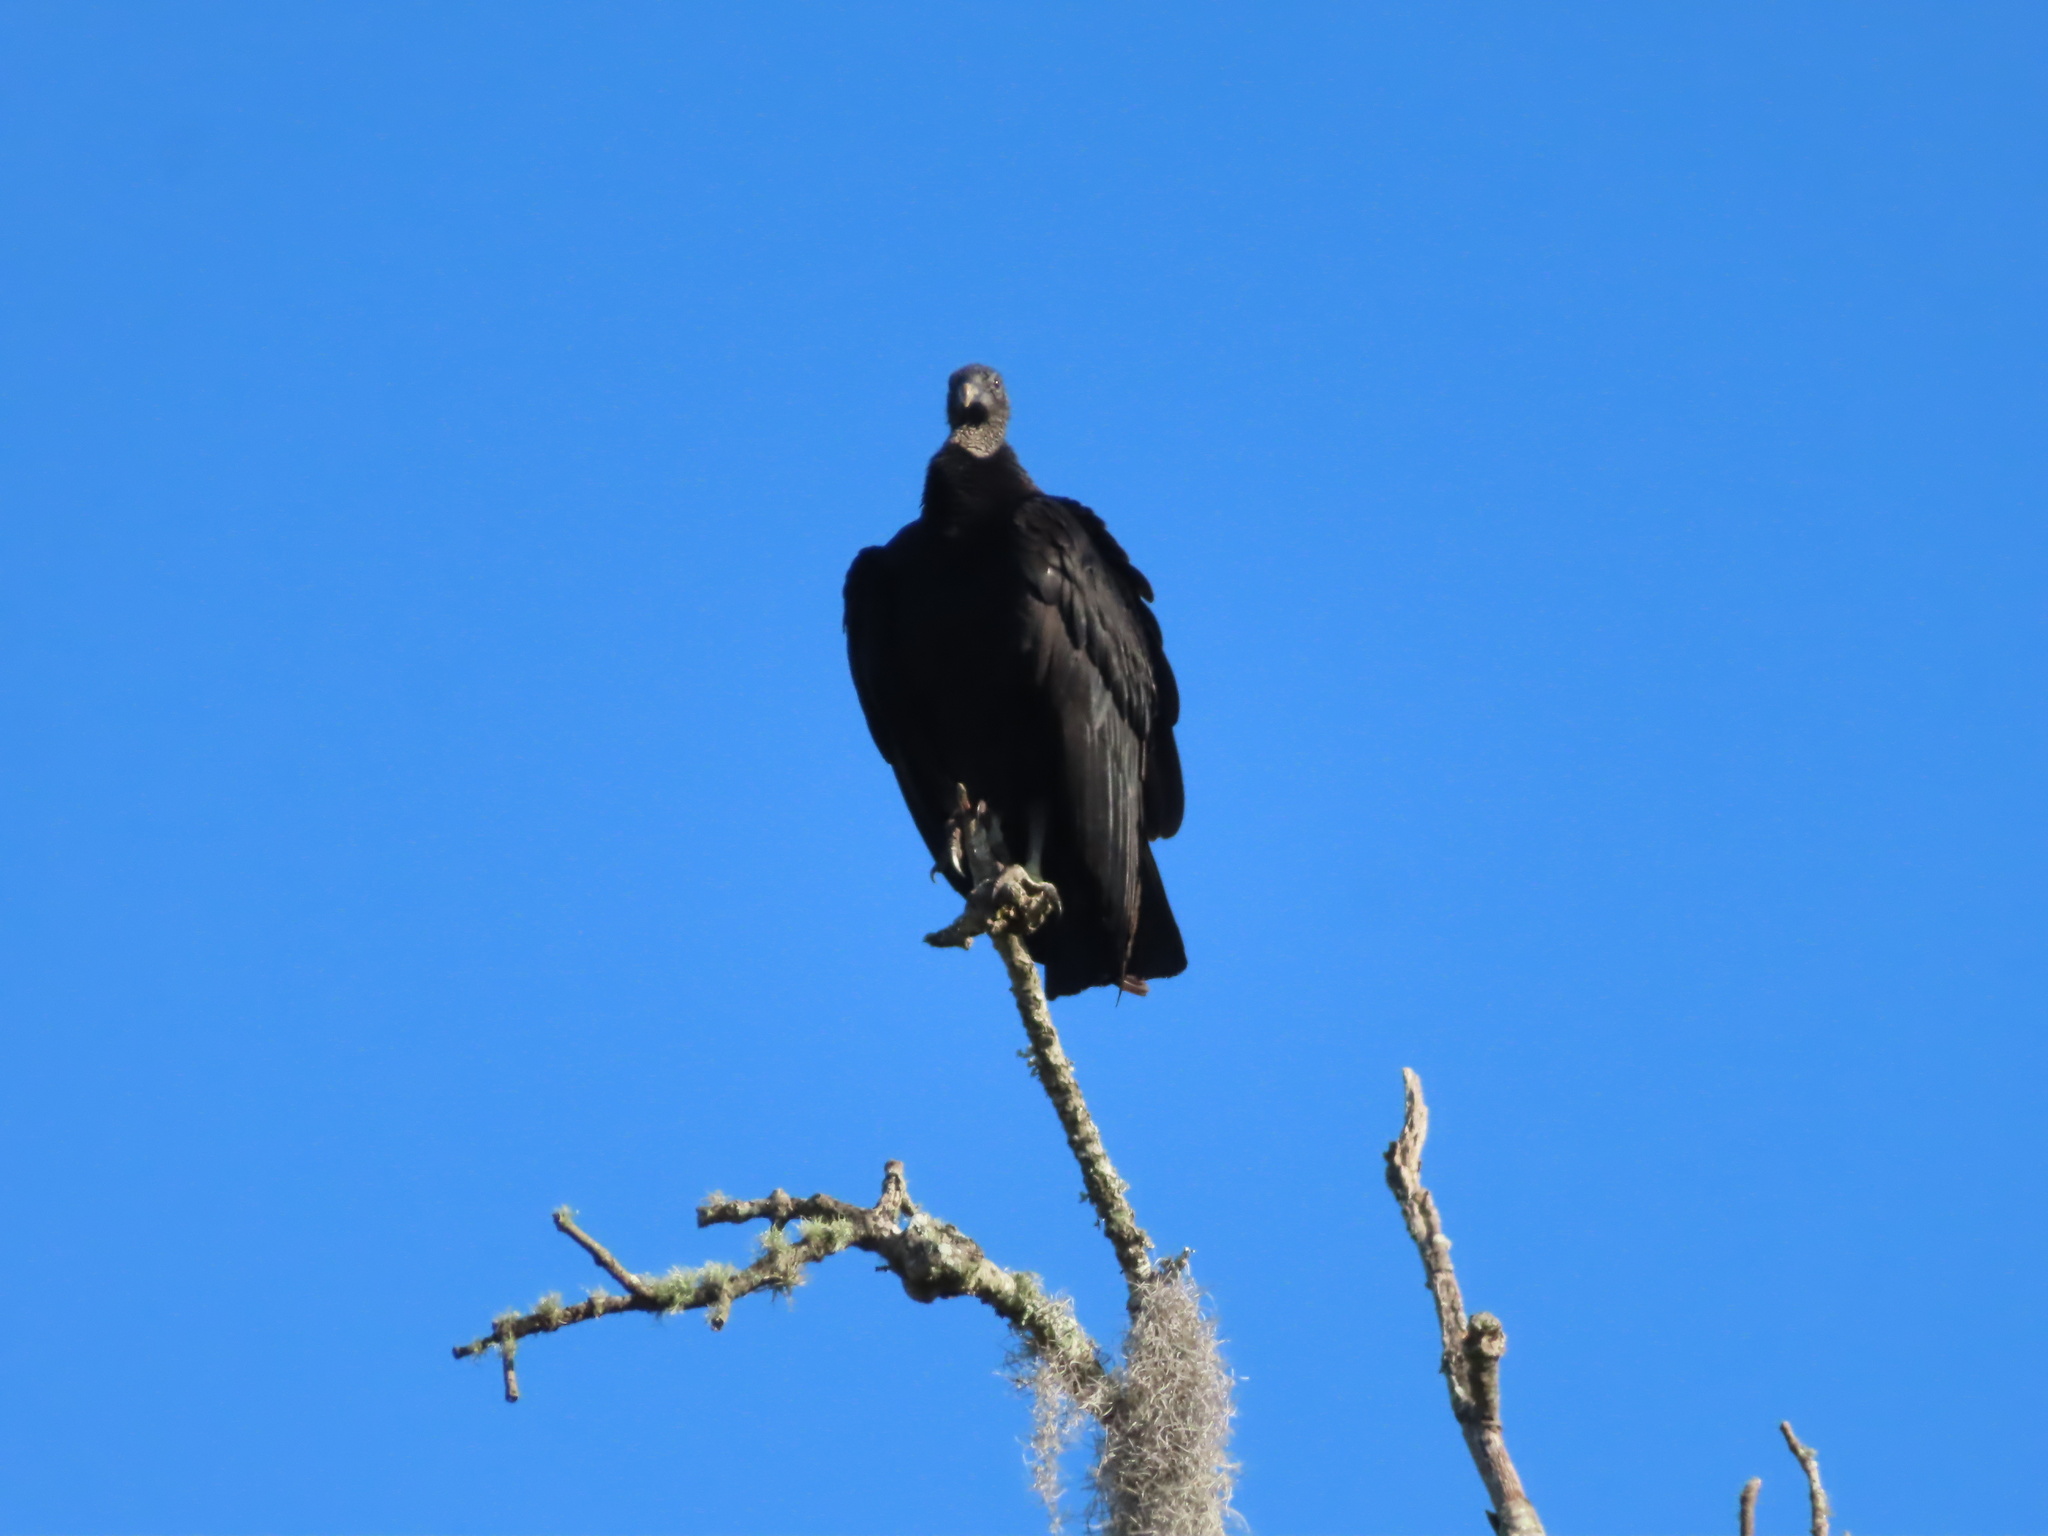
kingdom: Animalia
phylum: Chordata
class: Aves
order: Accipitriformes
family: Cathartidae
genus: Coragyps
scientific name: Coragyps atratus
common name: Black vulture
